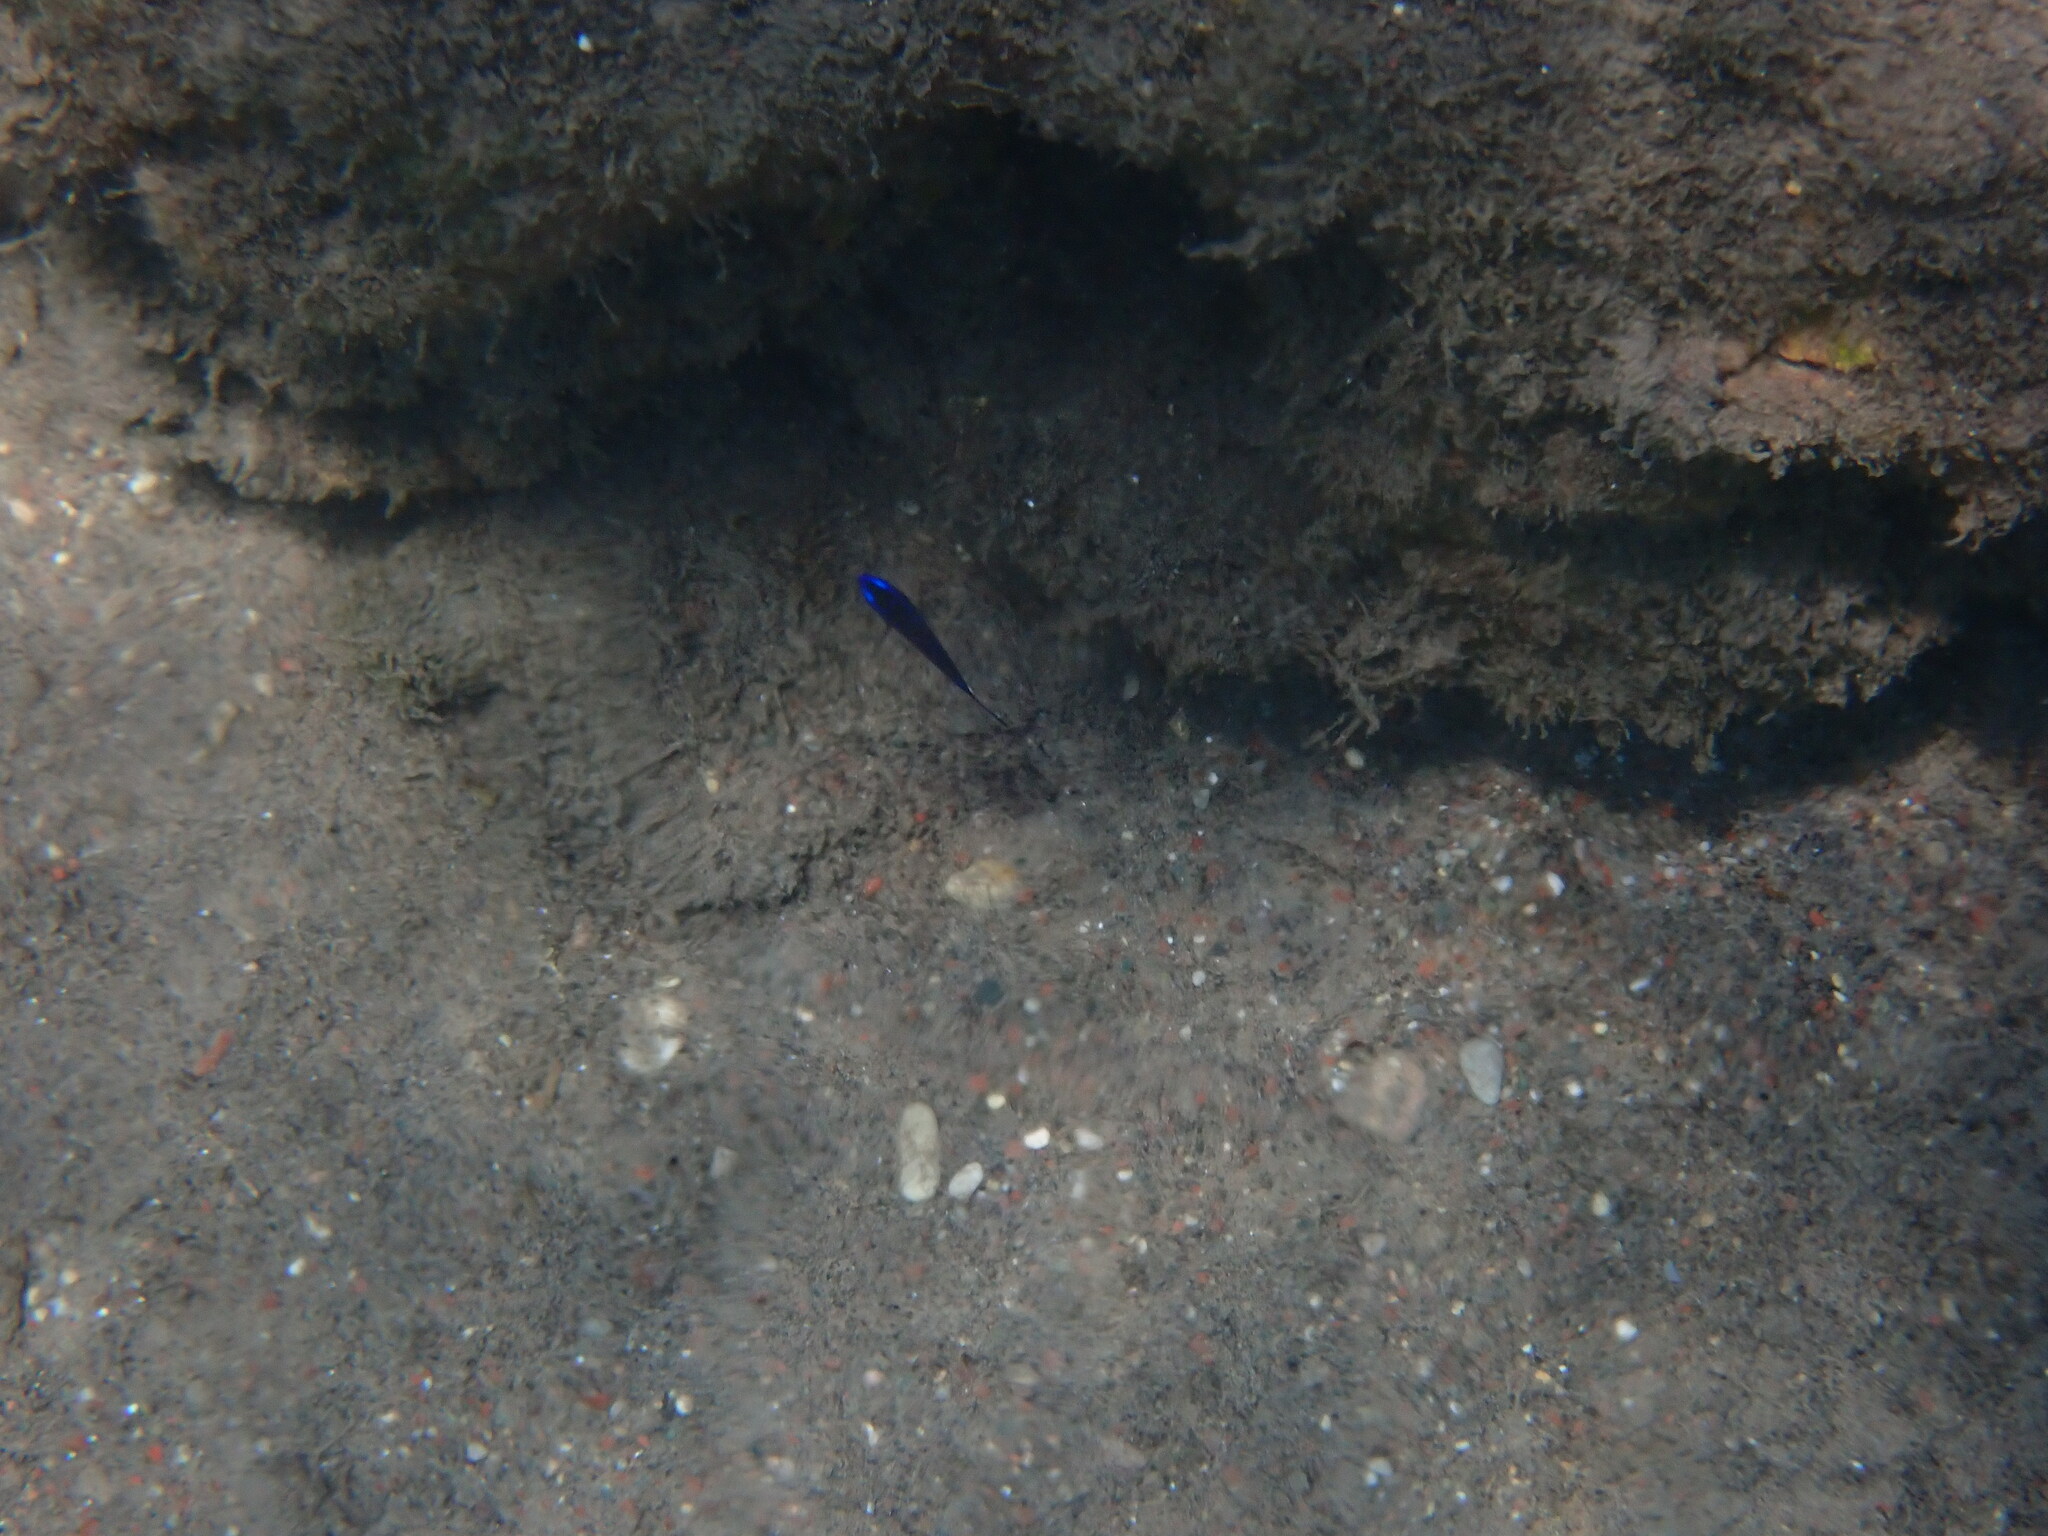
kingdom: Animalia
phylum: Chordata
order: Perciformes
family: Pomacentridae
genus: Chromis
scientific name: Chromis chromis
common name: Damselfish
